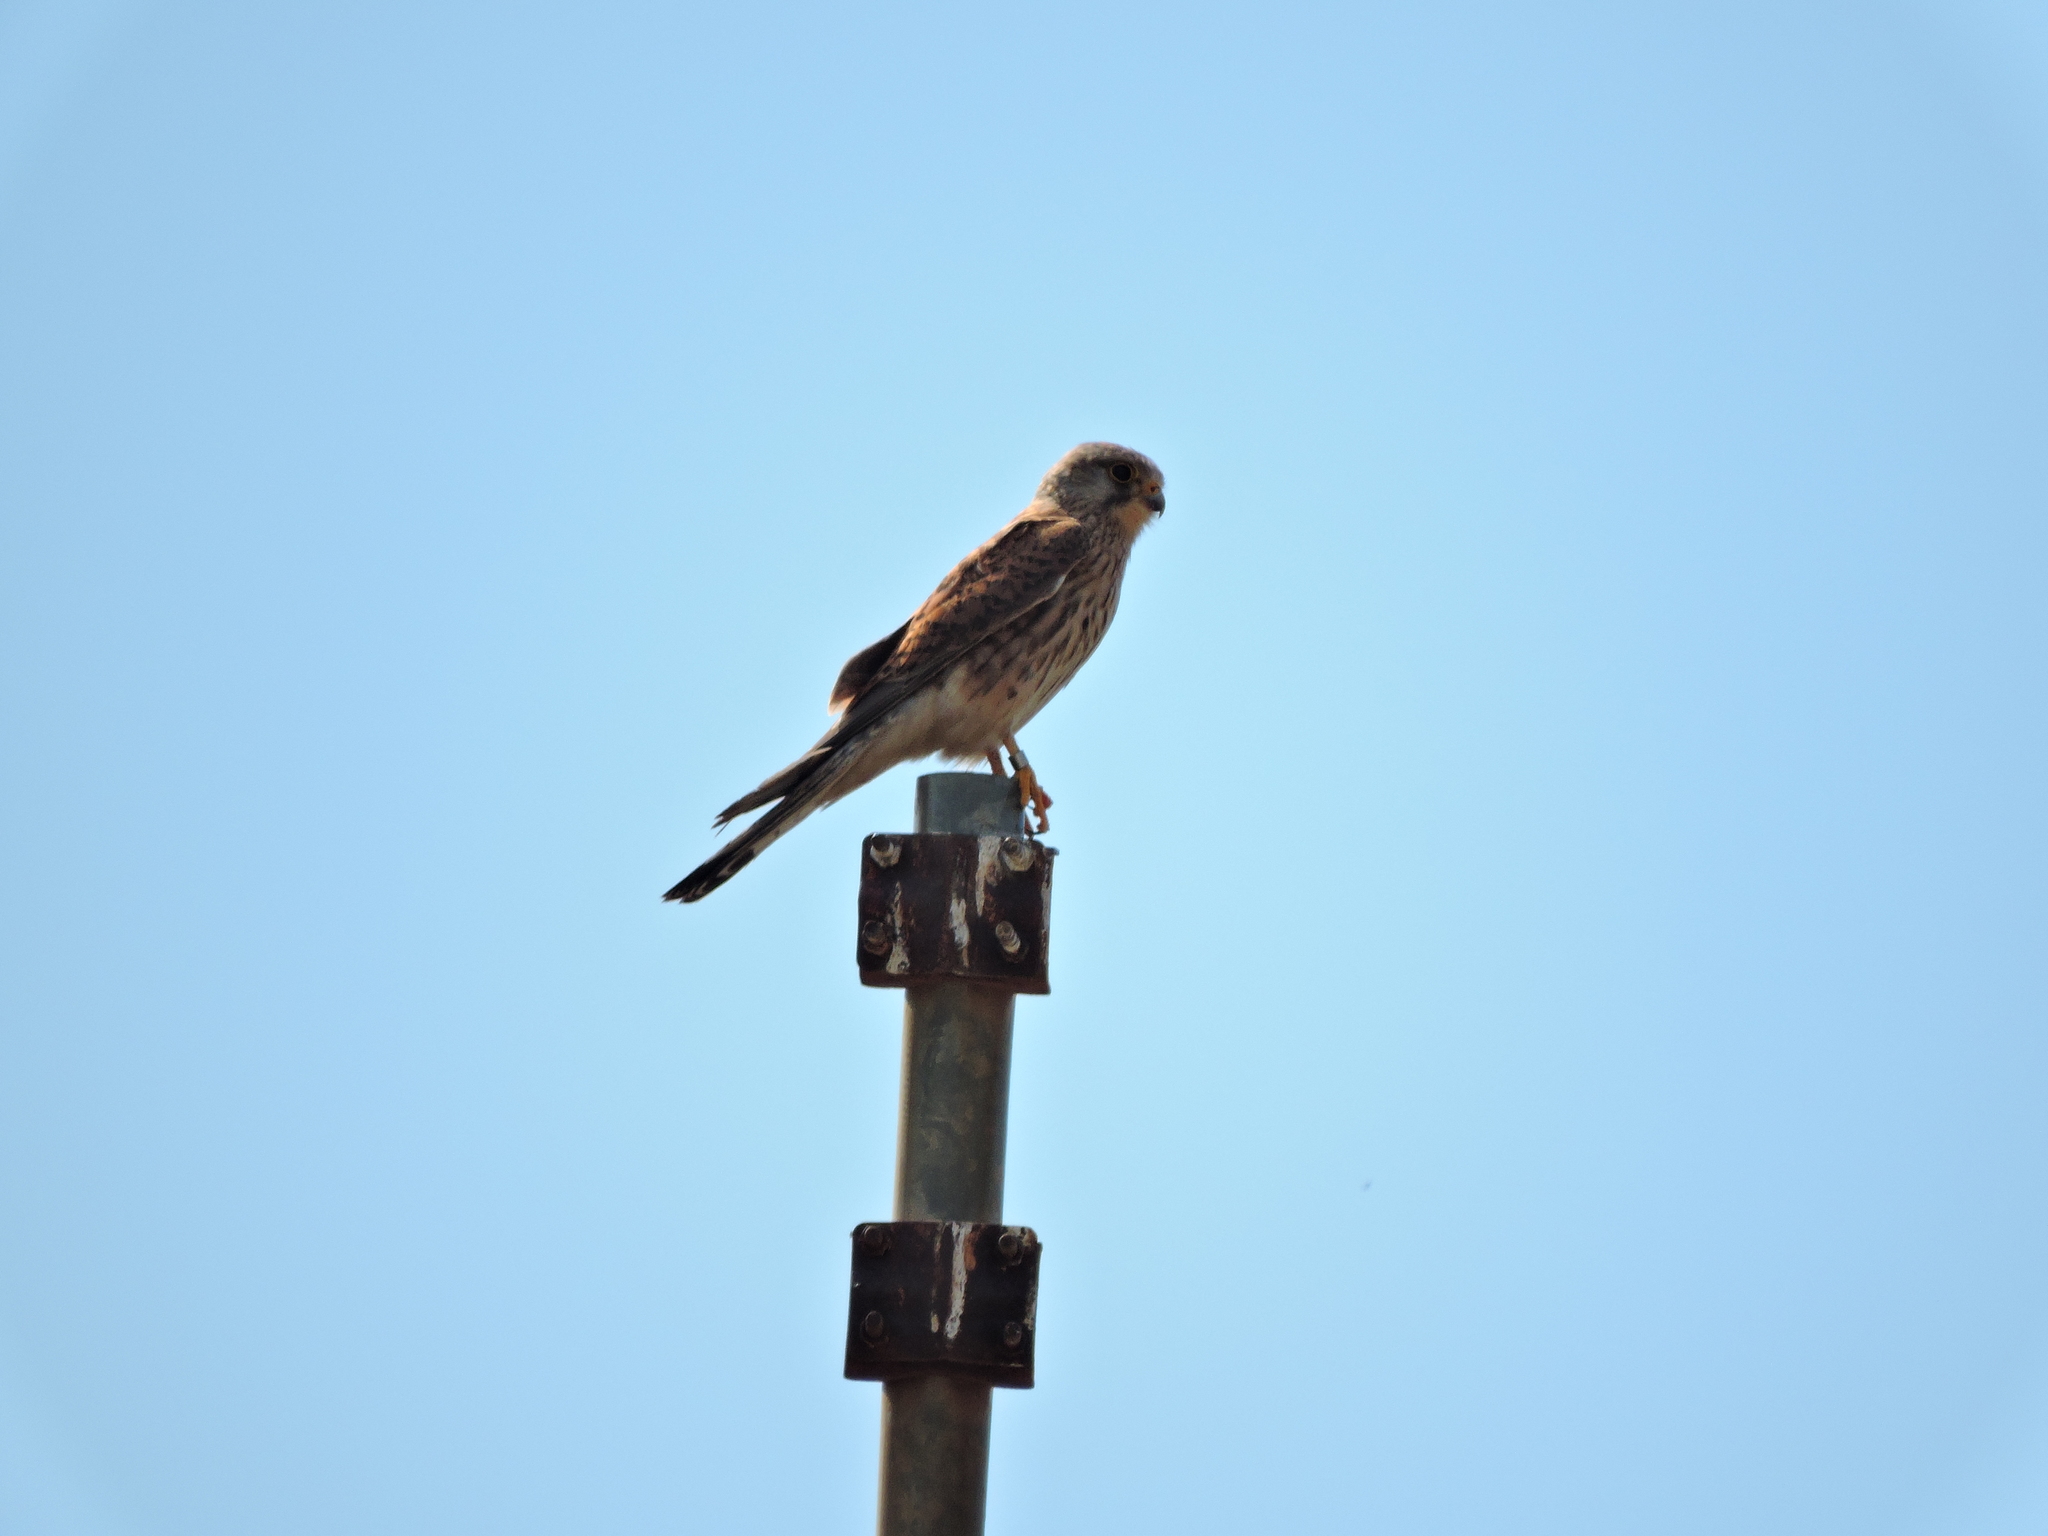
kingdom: Animalia
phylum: Chordata
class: Aves
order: Falconiformes
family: Falconidae
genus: Falco
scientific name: Falco tinnunculus
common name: Common kestrel
